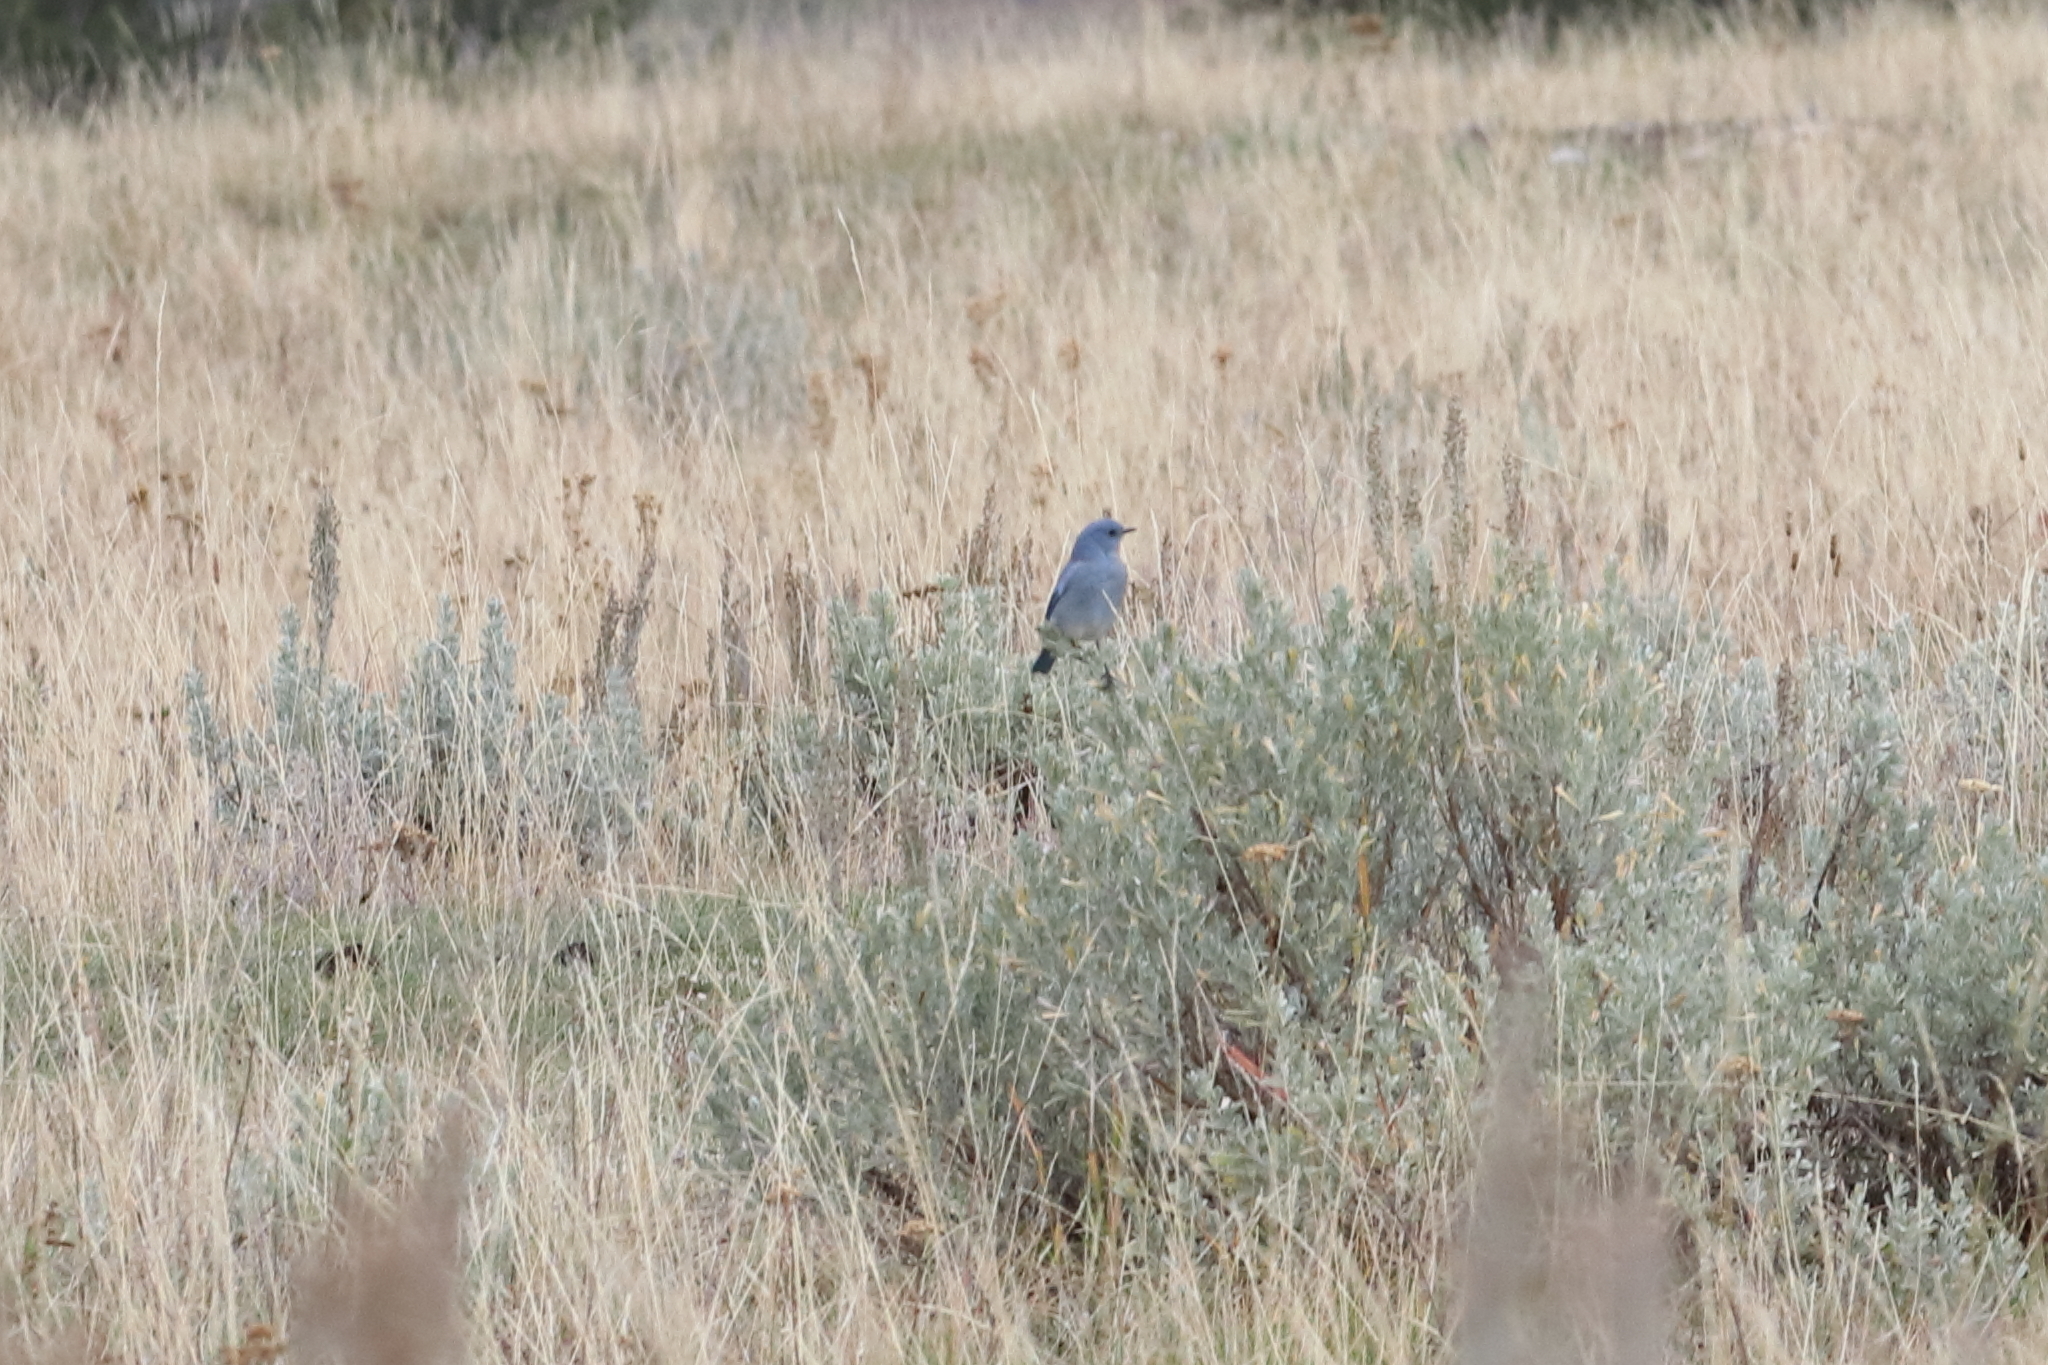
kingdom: Animalia
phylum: Chordata
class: Aves
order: Passeriformes
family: Turdidae
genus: Sialia
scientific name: Sialia currucoides
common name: Mountain bluebird
